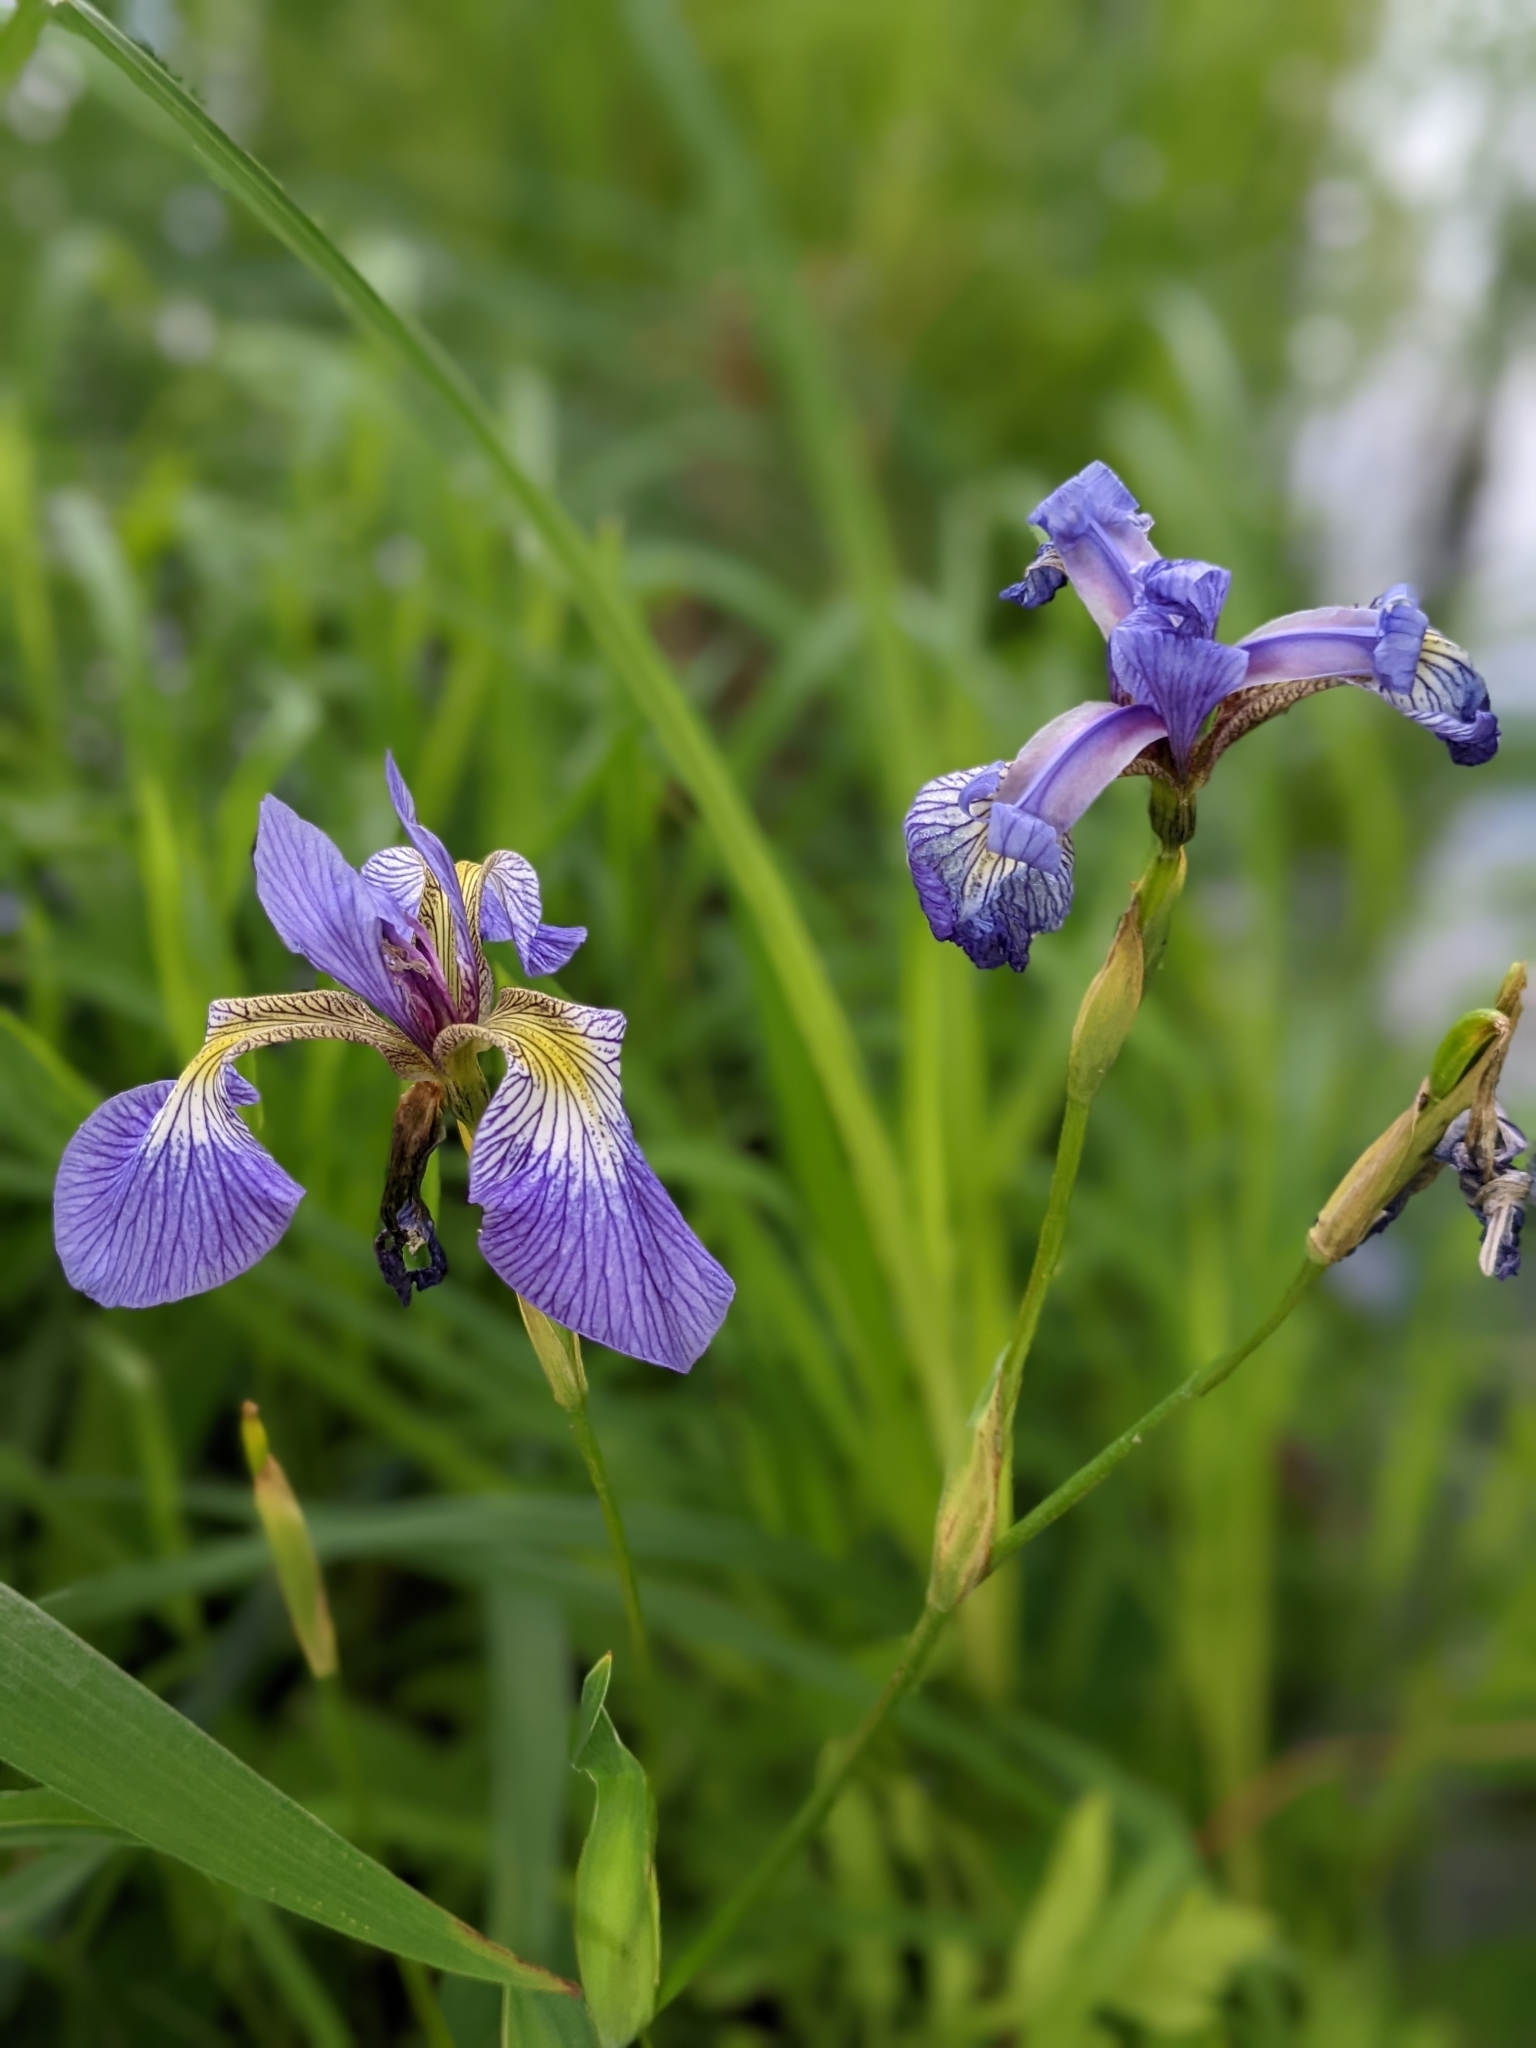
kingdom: Plantae
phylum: Tracheophyta
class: Liliopsida
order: Asparagales
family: Iridaceae
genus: Iris
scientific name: Iris versicolor
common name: Purple iris
